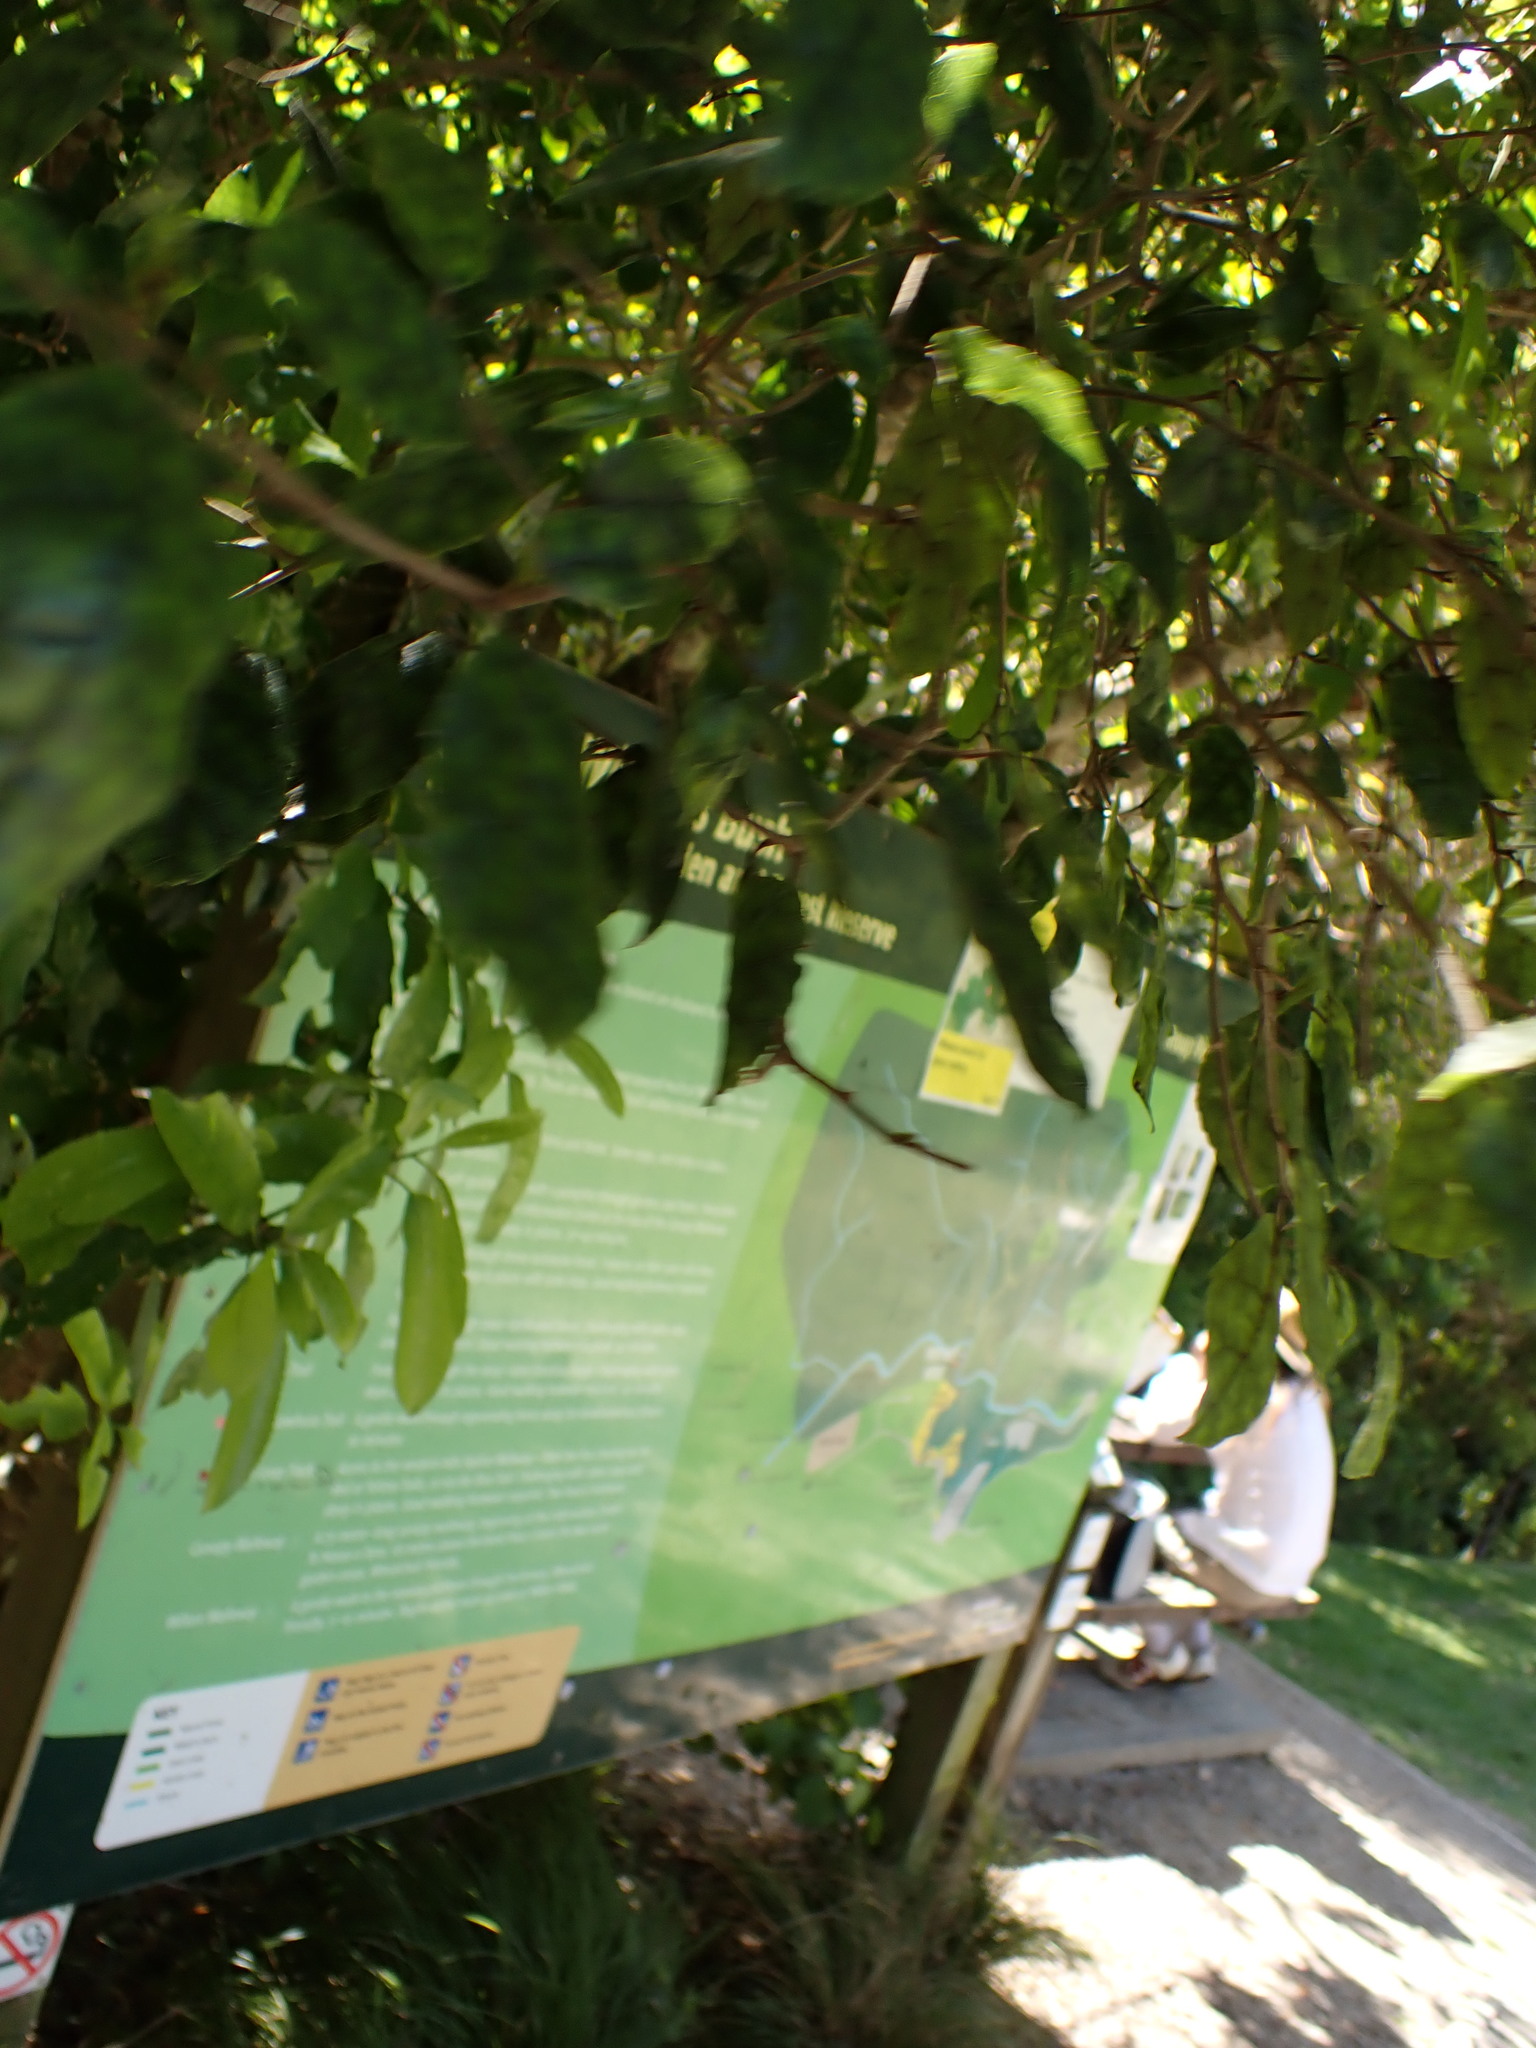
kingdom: Plantae
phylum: Tracheophyta
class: Magnoliopsida
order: Asterales
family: Rousseaceae
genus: Carpodetus
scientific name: Carpodetus serratus
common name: White mapau
